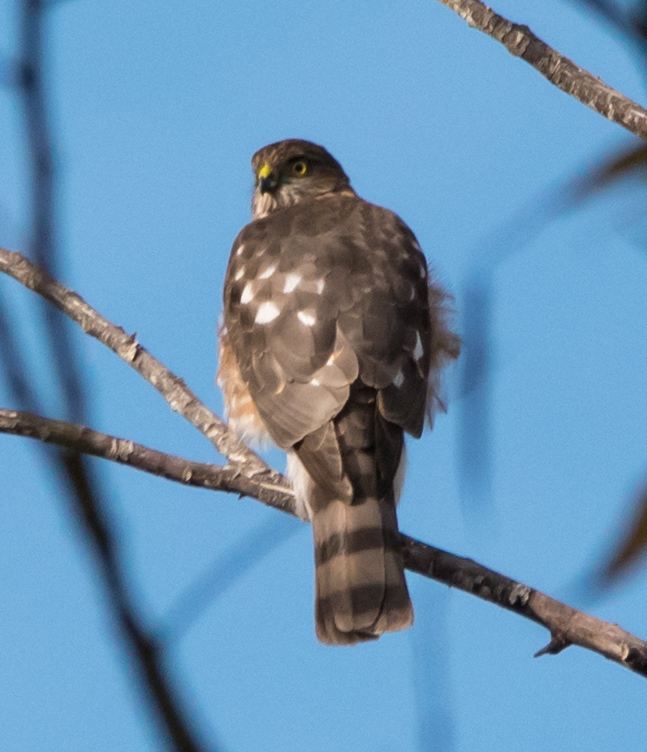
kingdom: Animalia
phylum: Chordata
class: Aves
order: Accipitriformes
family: Accipitridae
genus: Accipiter
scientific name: Accipiter striatus
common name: Sharp-shinned hawk
